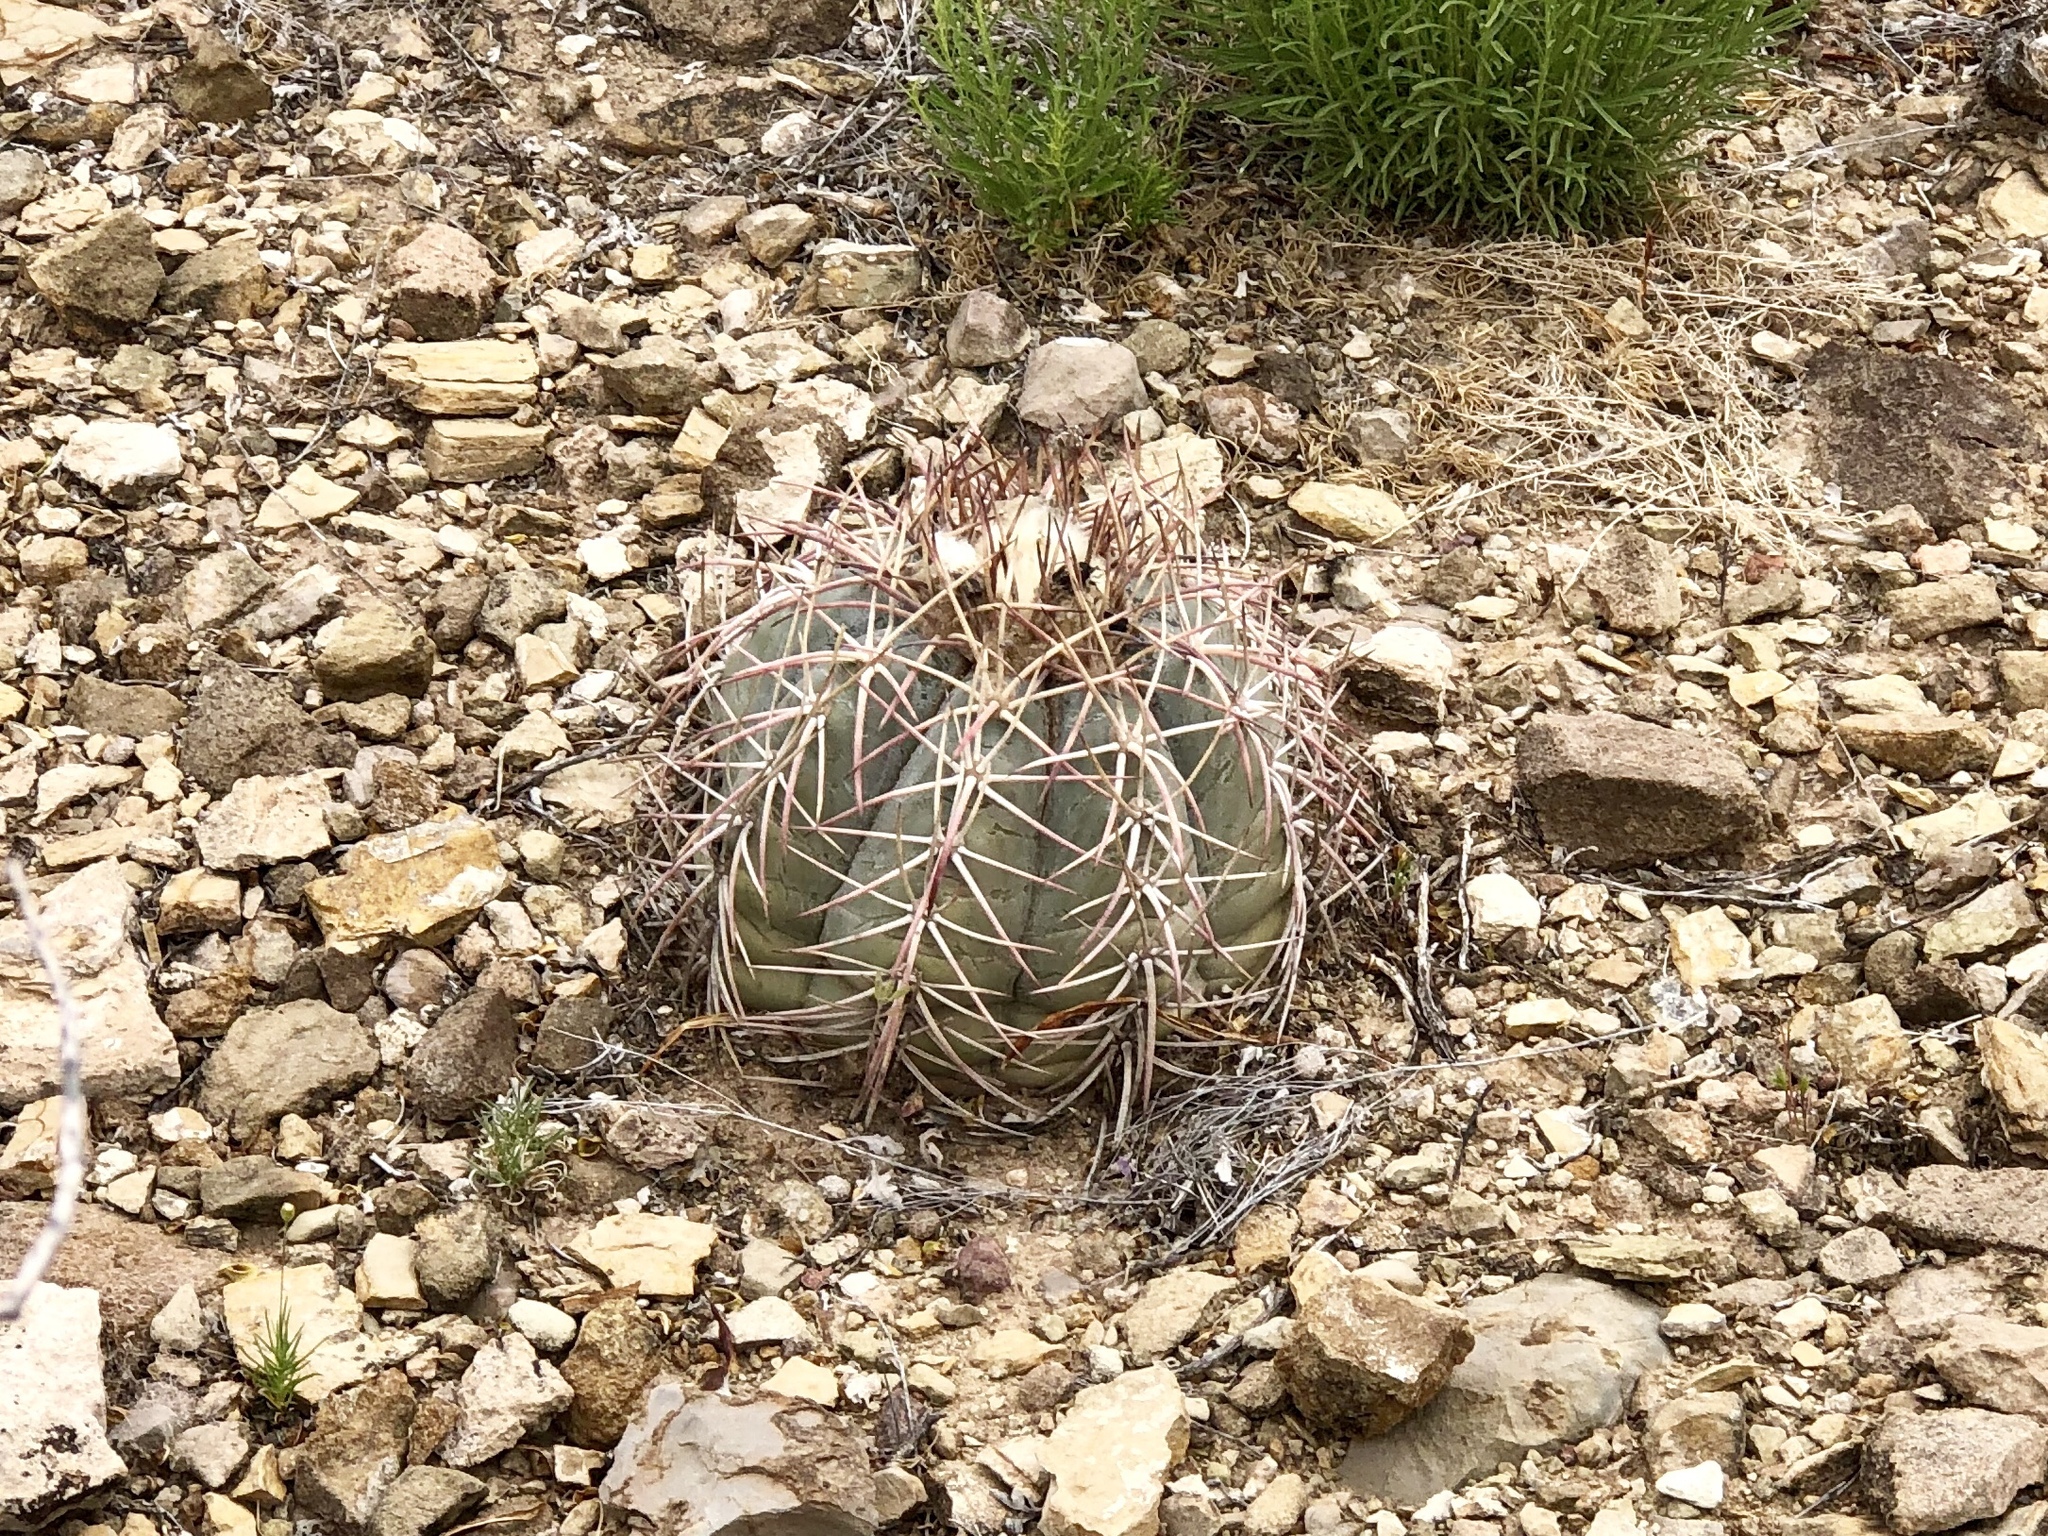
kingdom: Plantae
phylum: Tracheophyta
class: Magnoliopsida
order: Caryophyllales
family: Cactaceae
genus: Echinocactus
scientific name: Echinocactus horizonthalonius
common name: Devilshead
